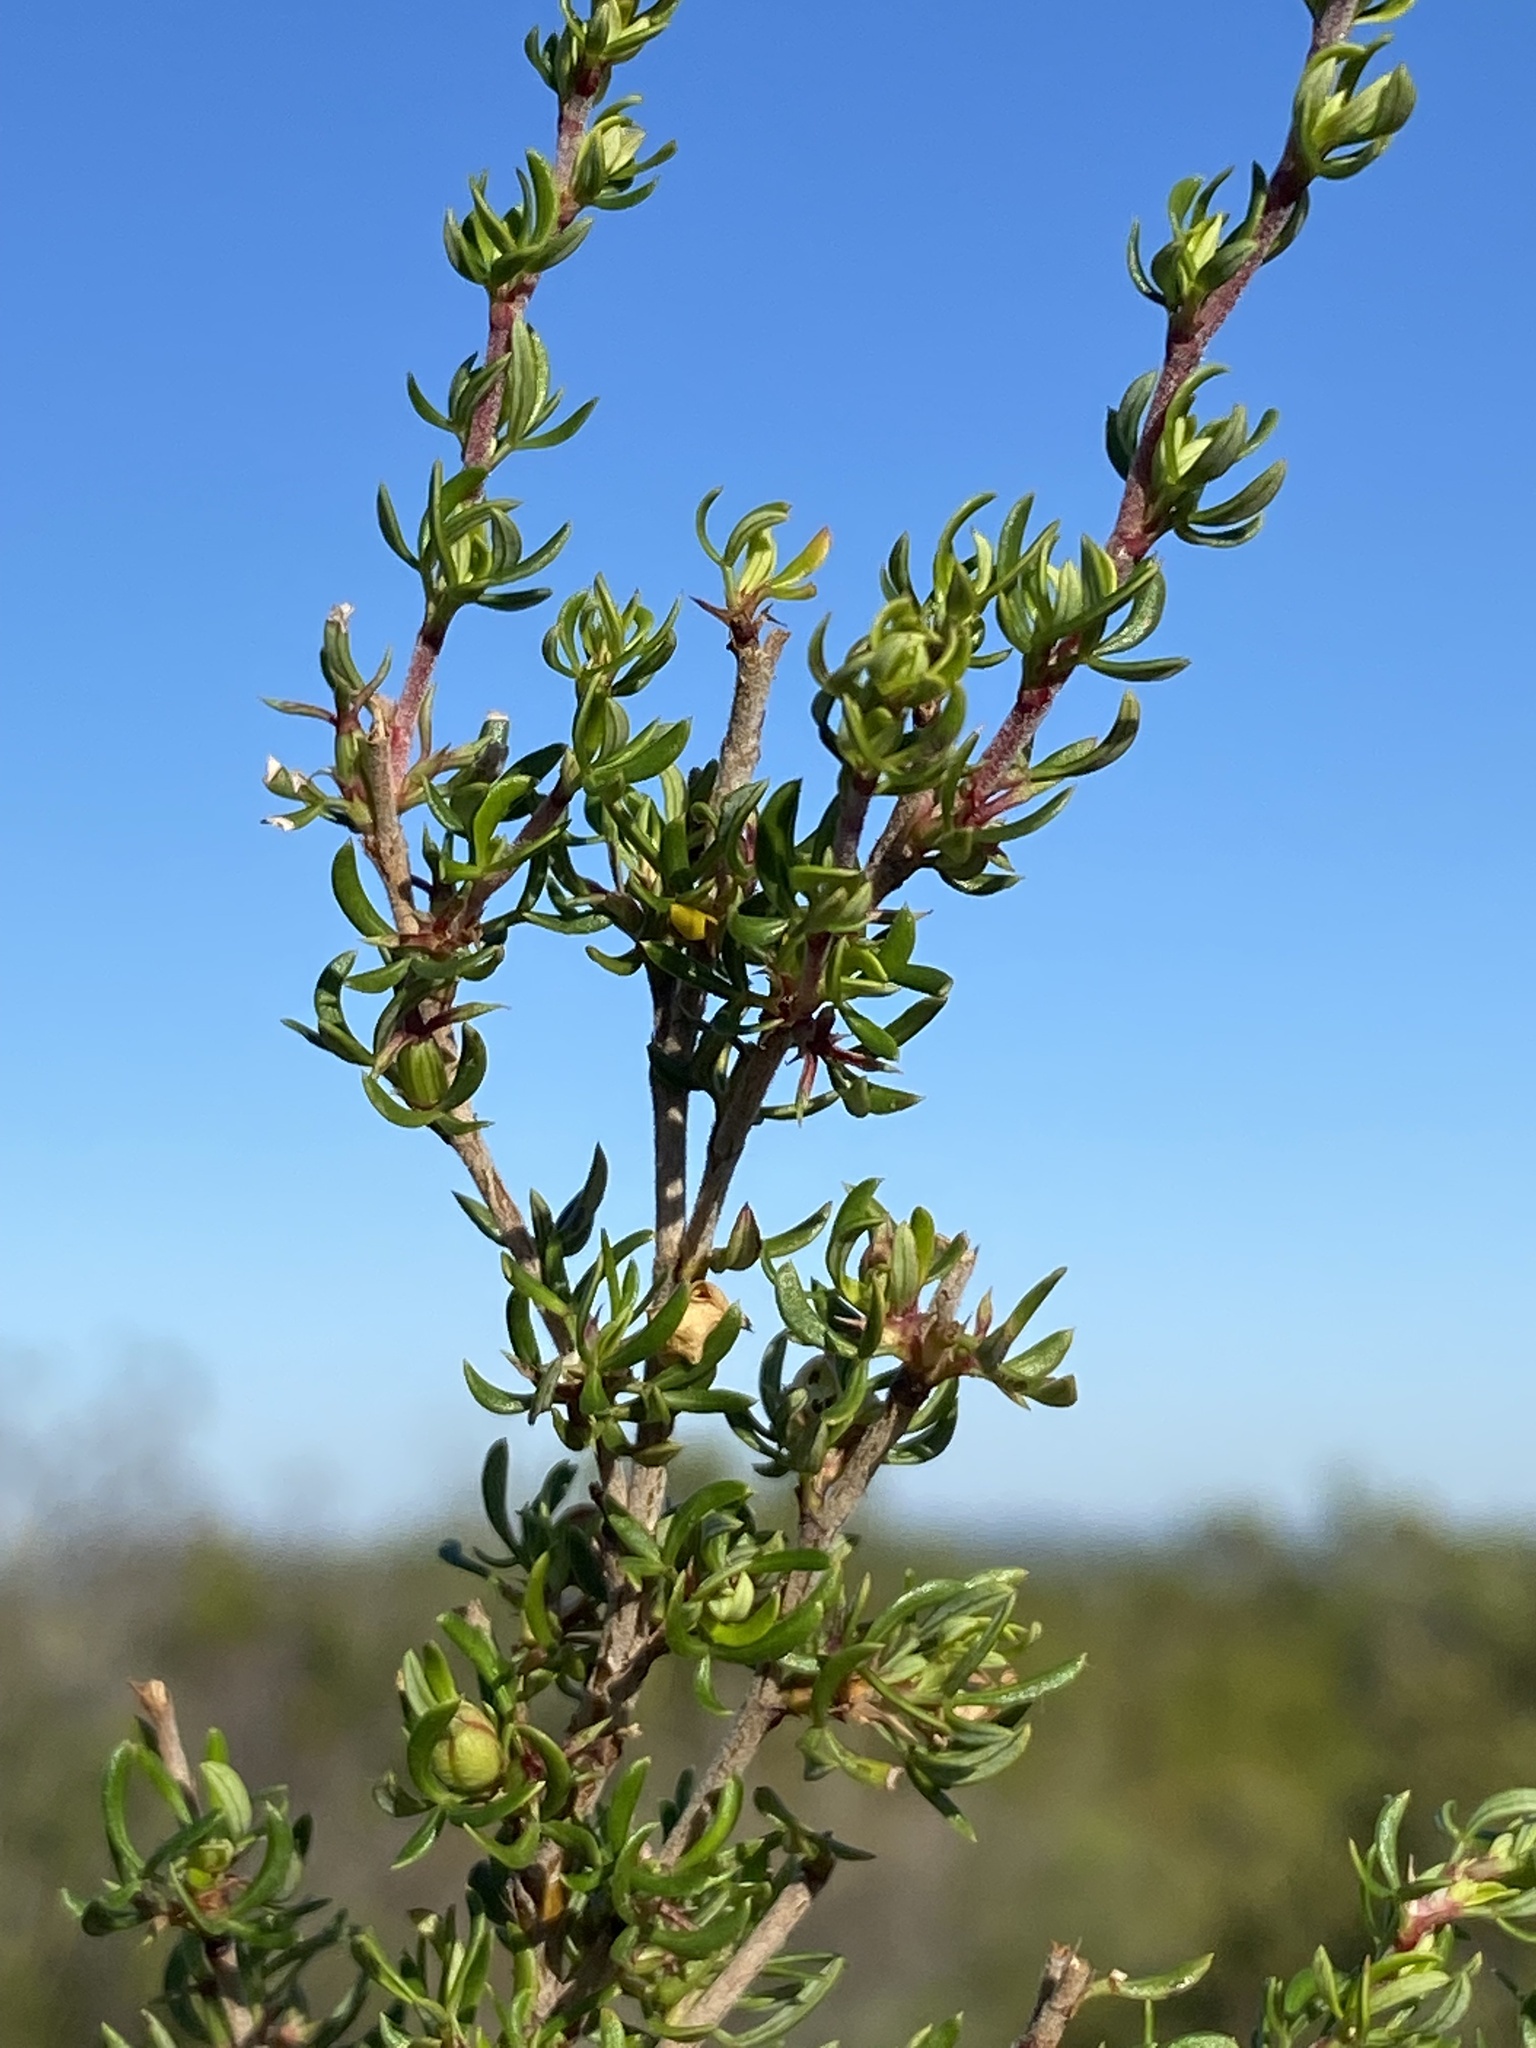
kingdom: Plantae
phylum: Tracheophyta
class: Magnoliopsida
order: Rosales
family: Rosaceae
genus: Cliffortia
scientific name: Cliffortia falcata
